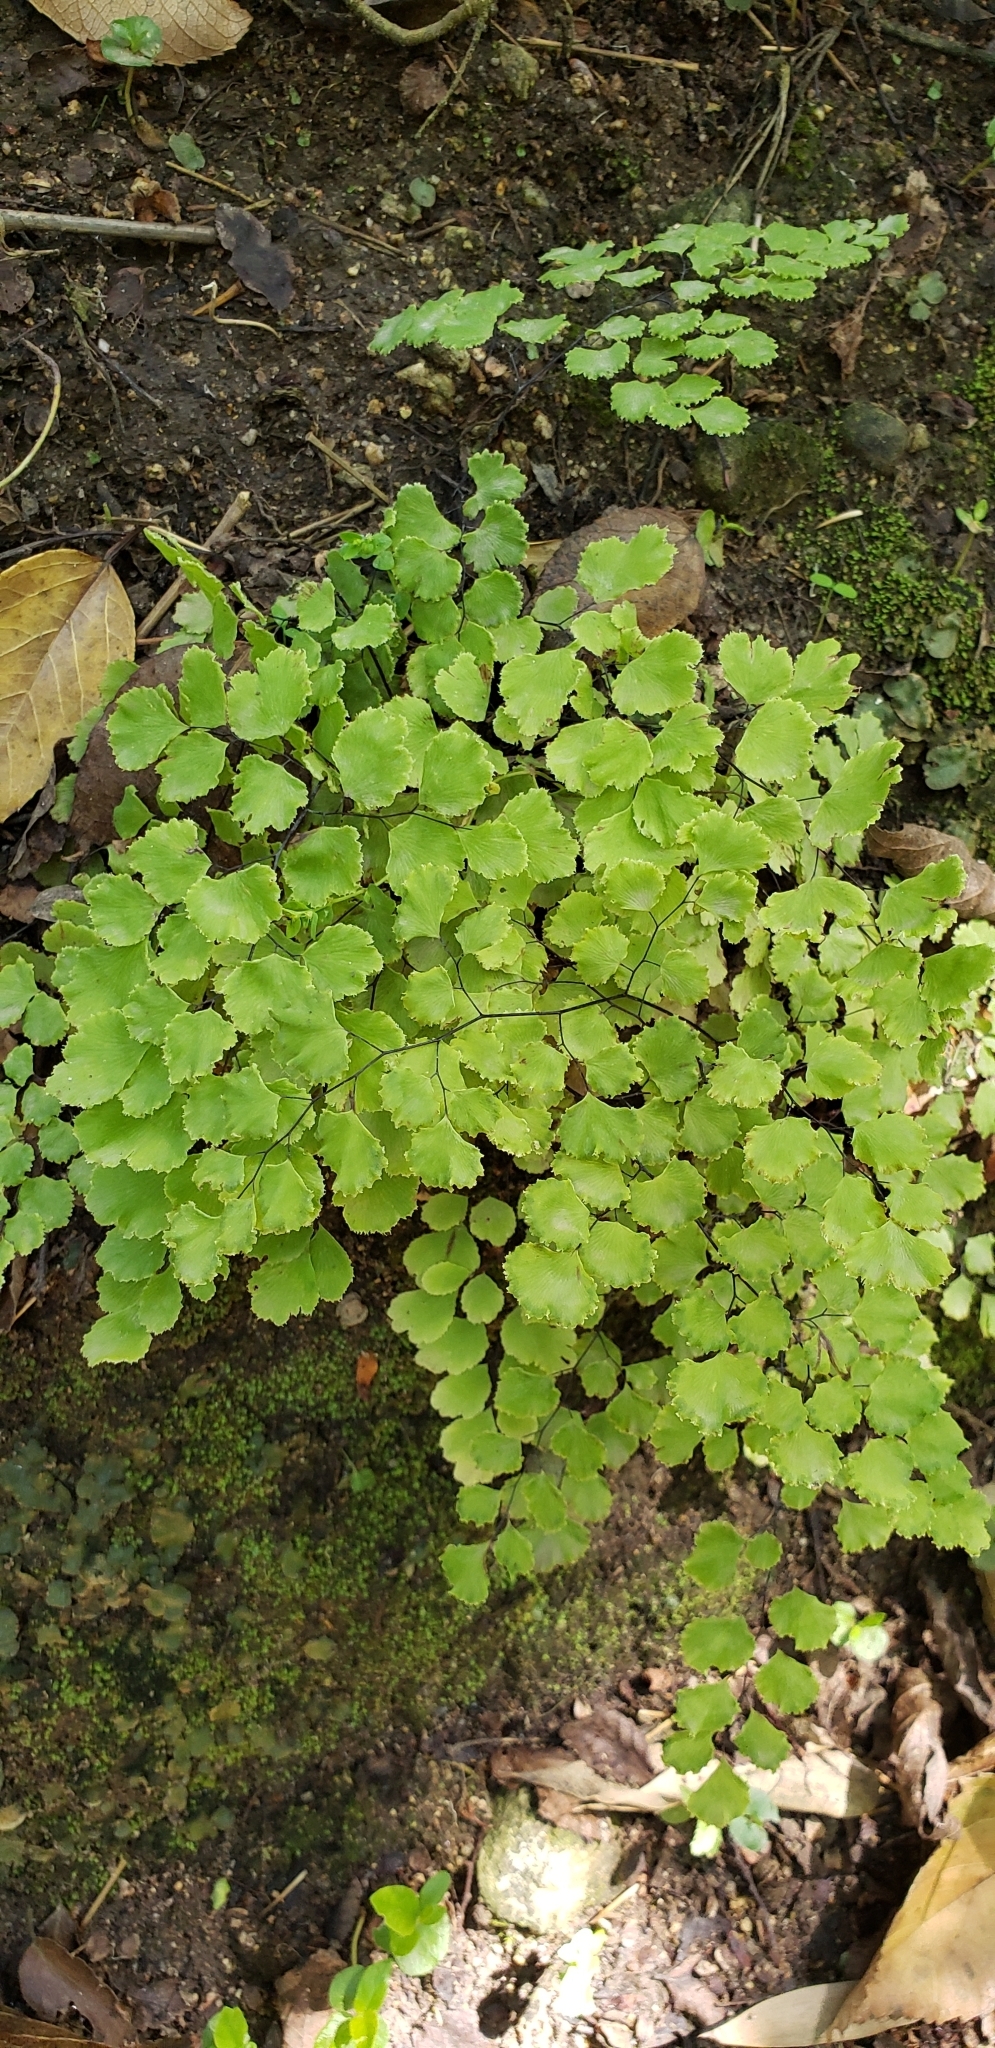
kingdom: Plantae
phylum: Tracheophyta
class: Polypodiopsida
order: Polypodiales
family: Pteridaceae
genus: Adiantum
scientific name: Adiantum chilense
